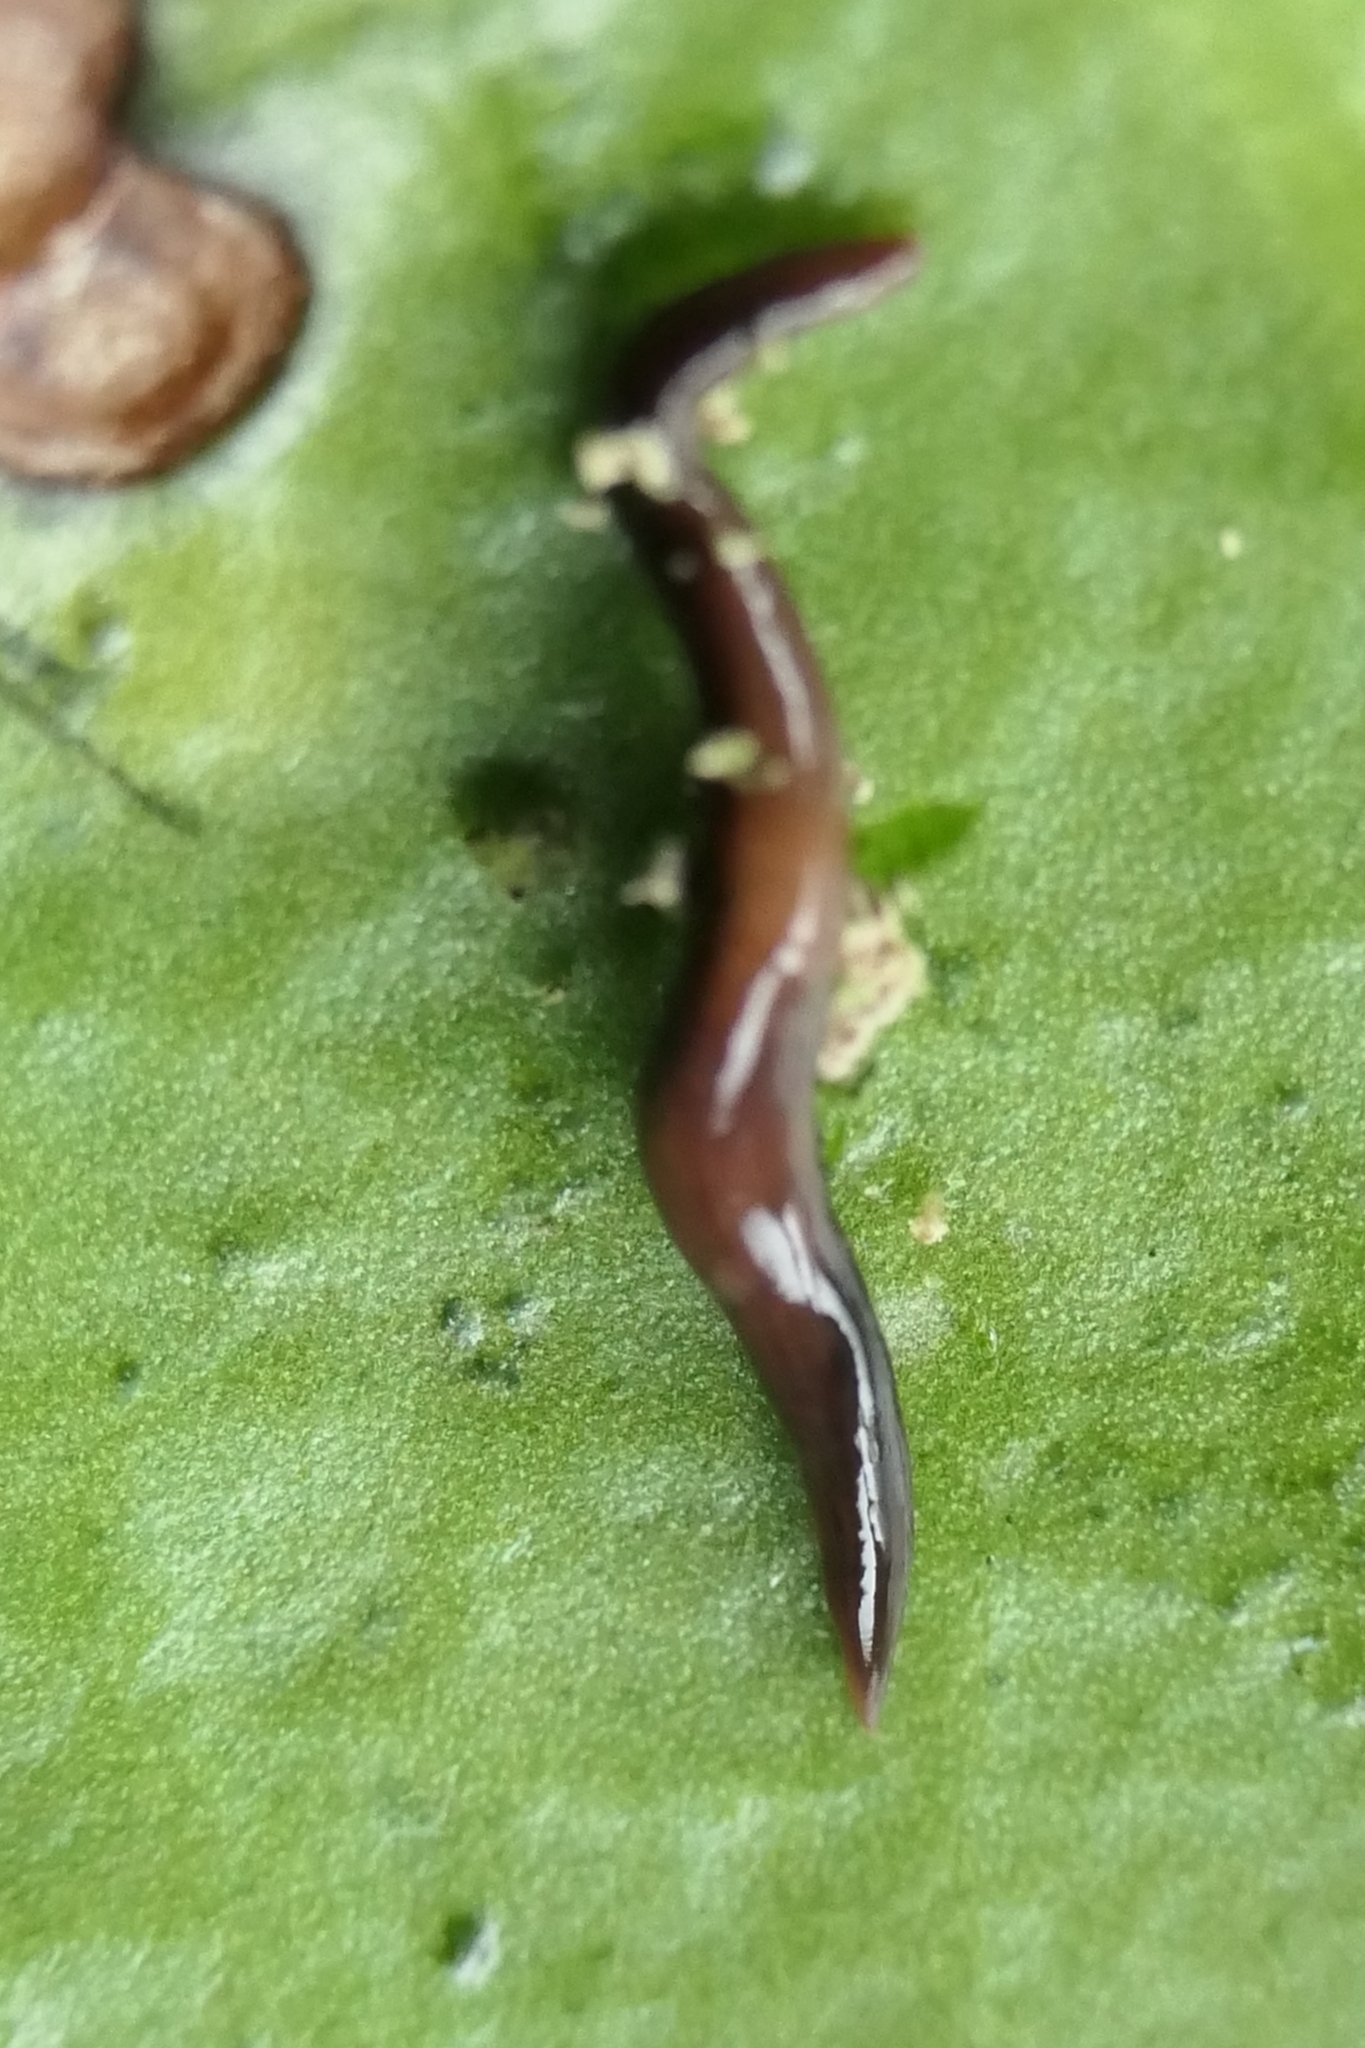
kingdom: Animalia
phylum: Platyhelminthes
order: Tricladida
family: Geoplanidae
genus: Caenoplana
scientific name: Caenoplana purpurea
